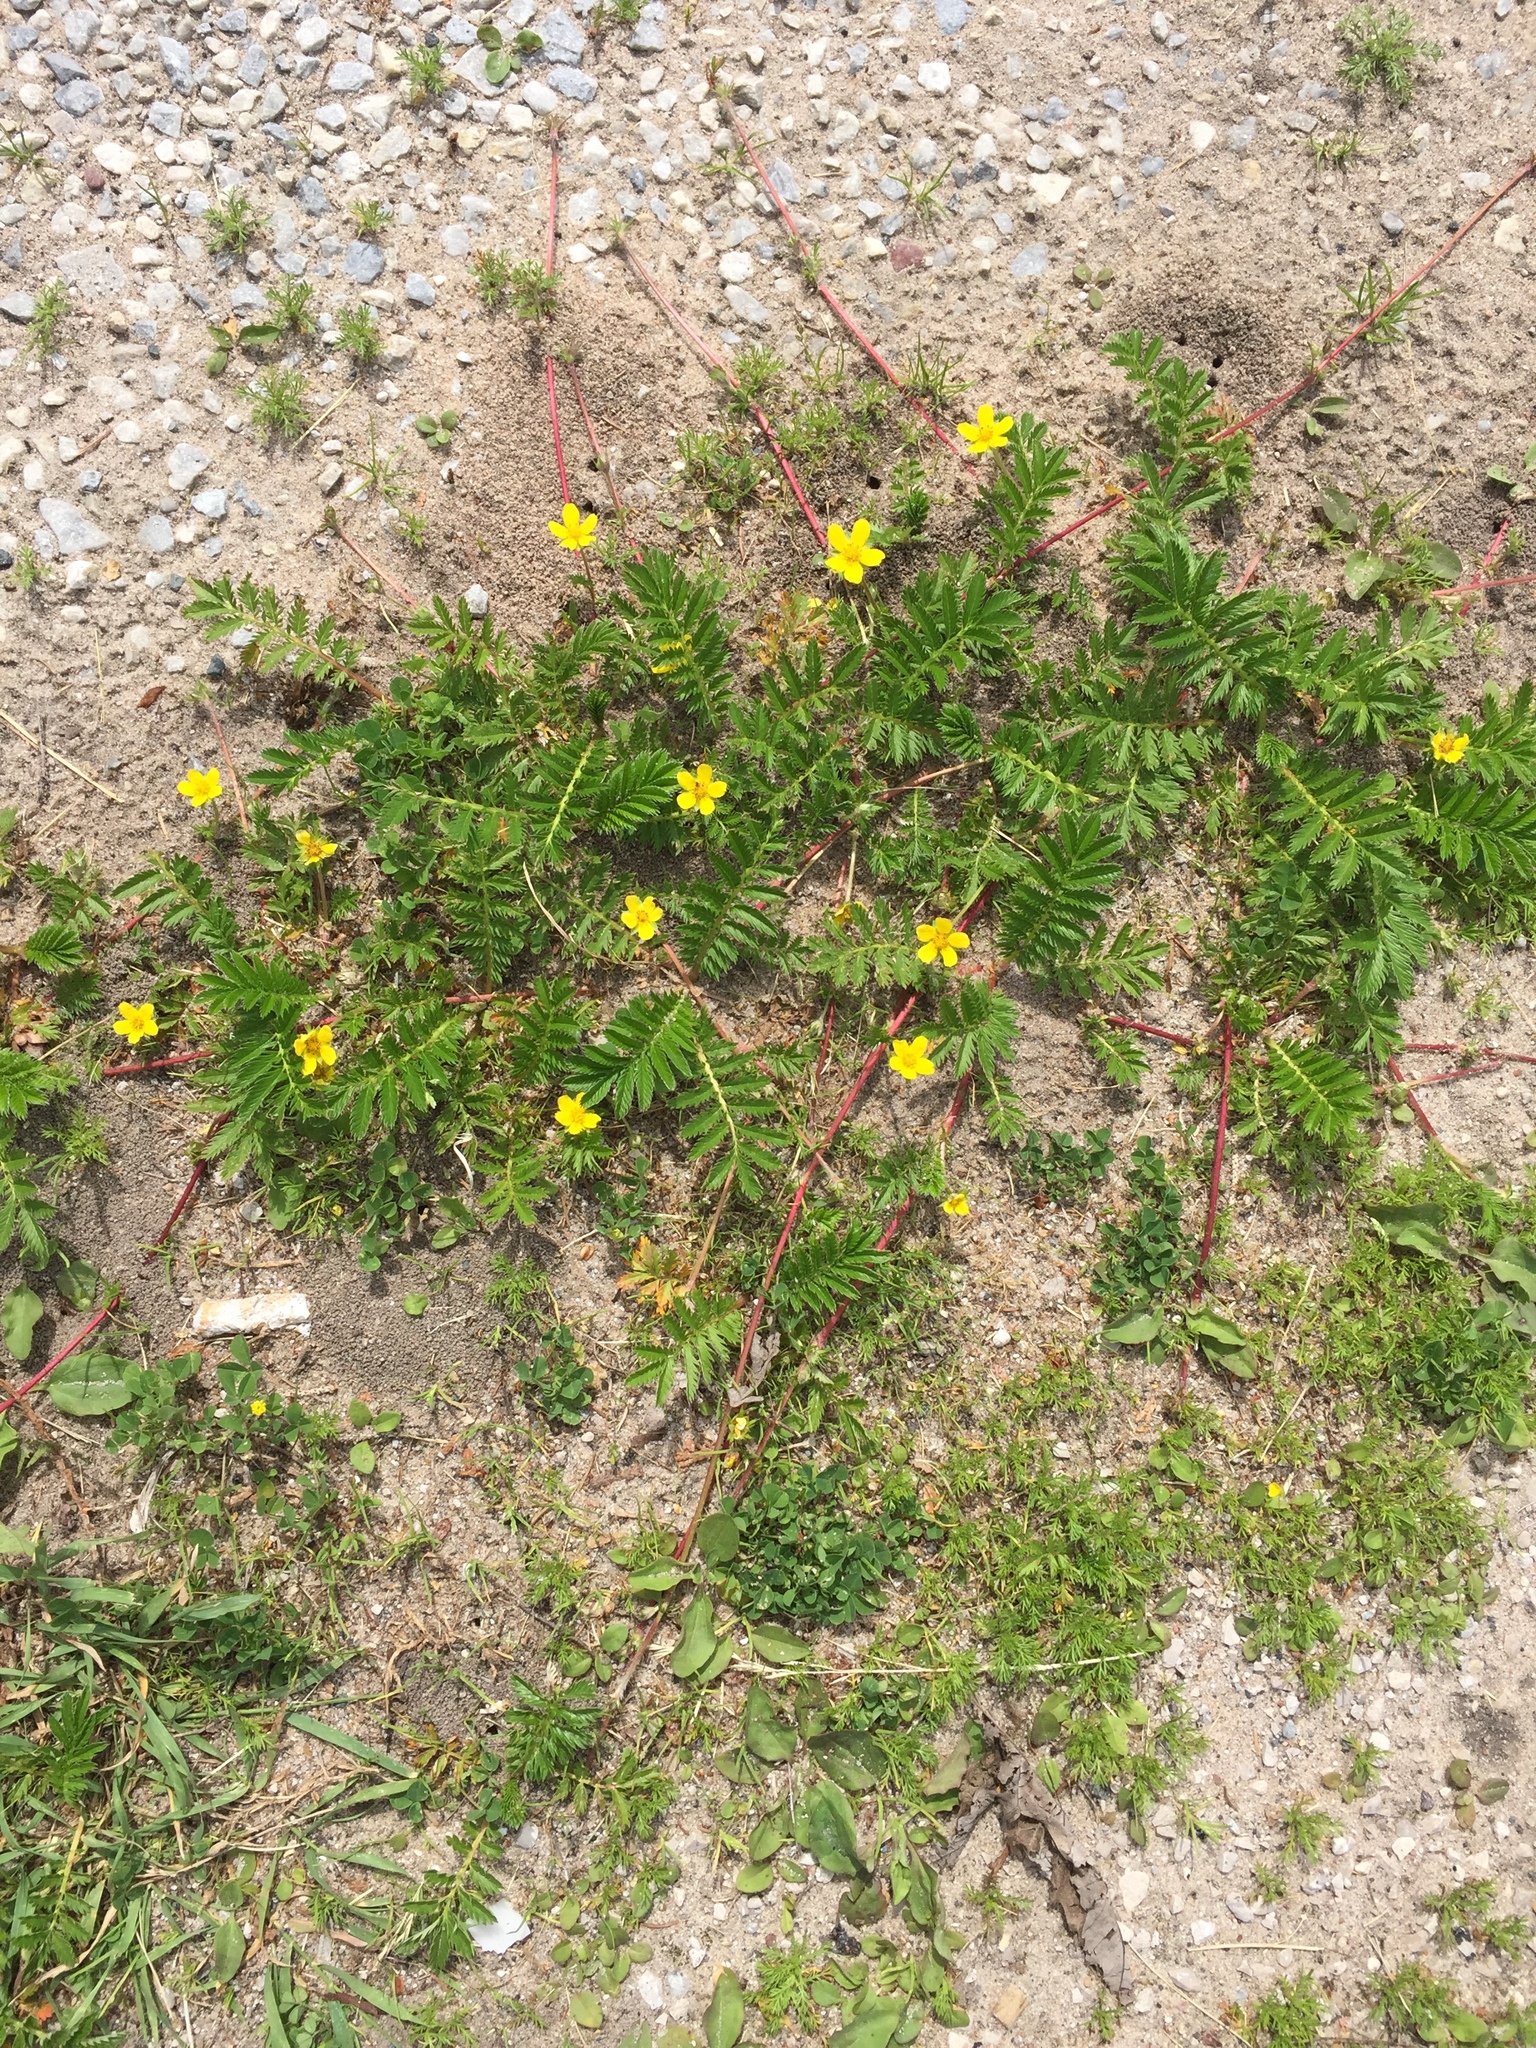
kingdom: Plantae
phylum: Tracheophyta
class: Magnoliopsida
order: Rosales
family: Rosaceae
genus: Argentina
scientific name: Argentina anserina
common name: Common silverweed
